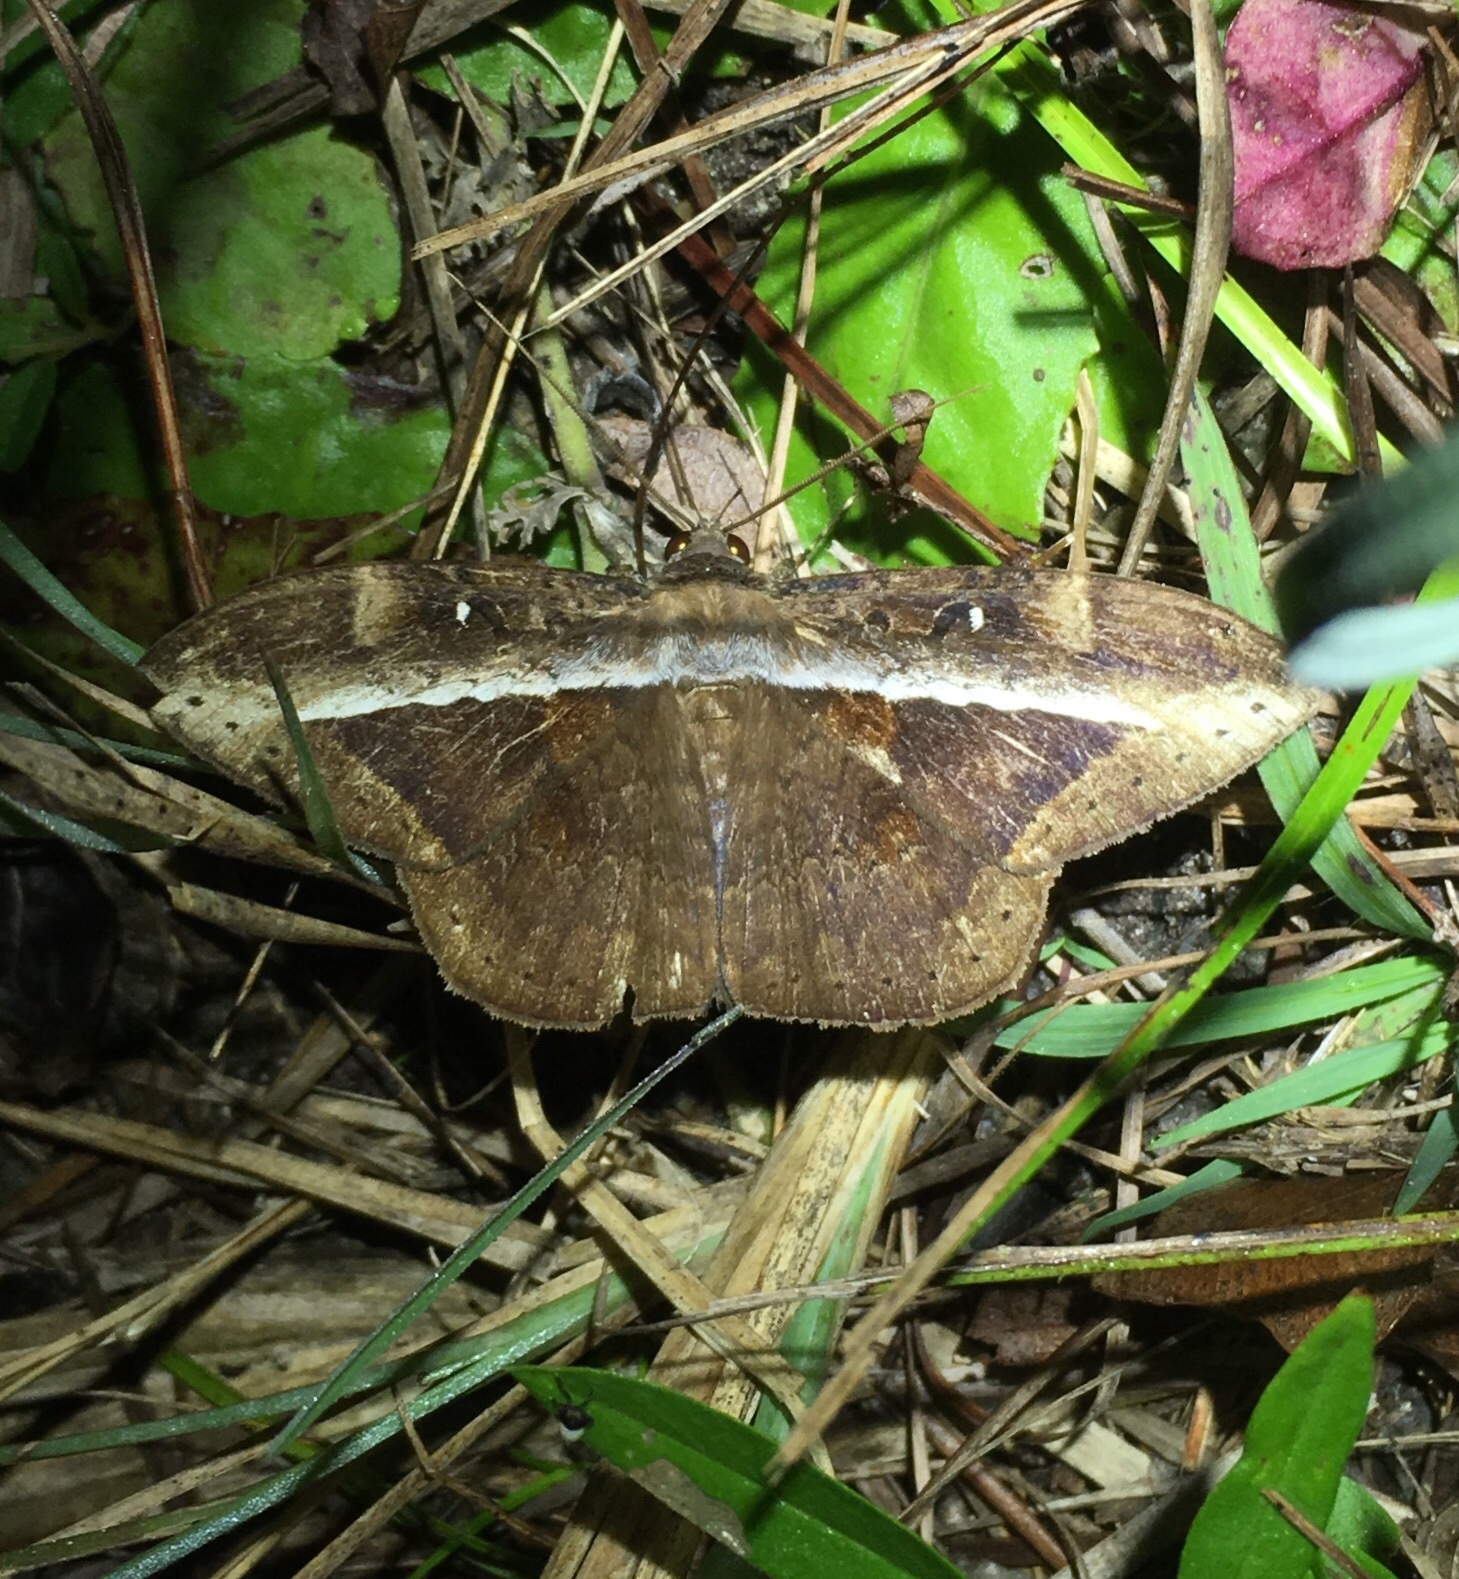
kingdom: Animalia
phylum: Arthropoda
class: Insecta
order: Lepidoptera
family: Erebidae
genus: Hemeroblemma
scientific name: Hemeroblemma opigena
